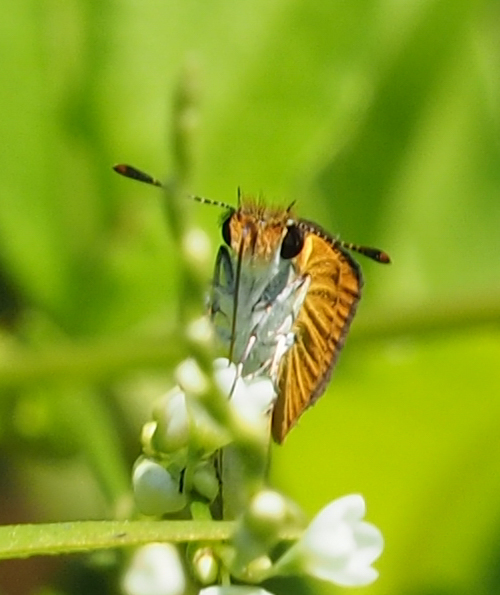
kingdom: Animalia
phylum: Arthropoda
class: Insecta
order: Lepidoptera
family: Hesperiidae
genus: Ancyloxypha
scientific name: Ancyloxypha numitor
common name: Least skipper
